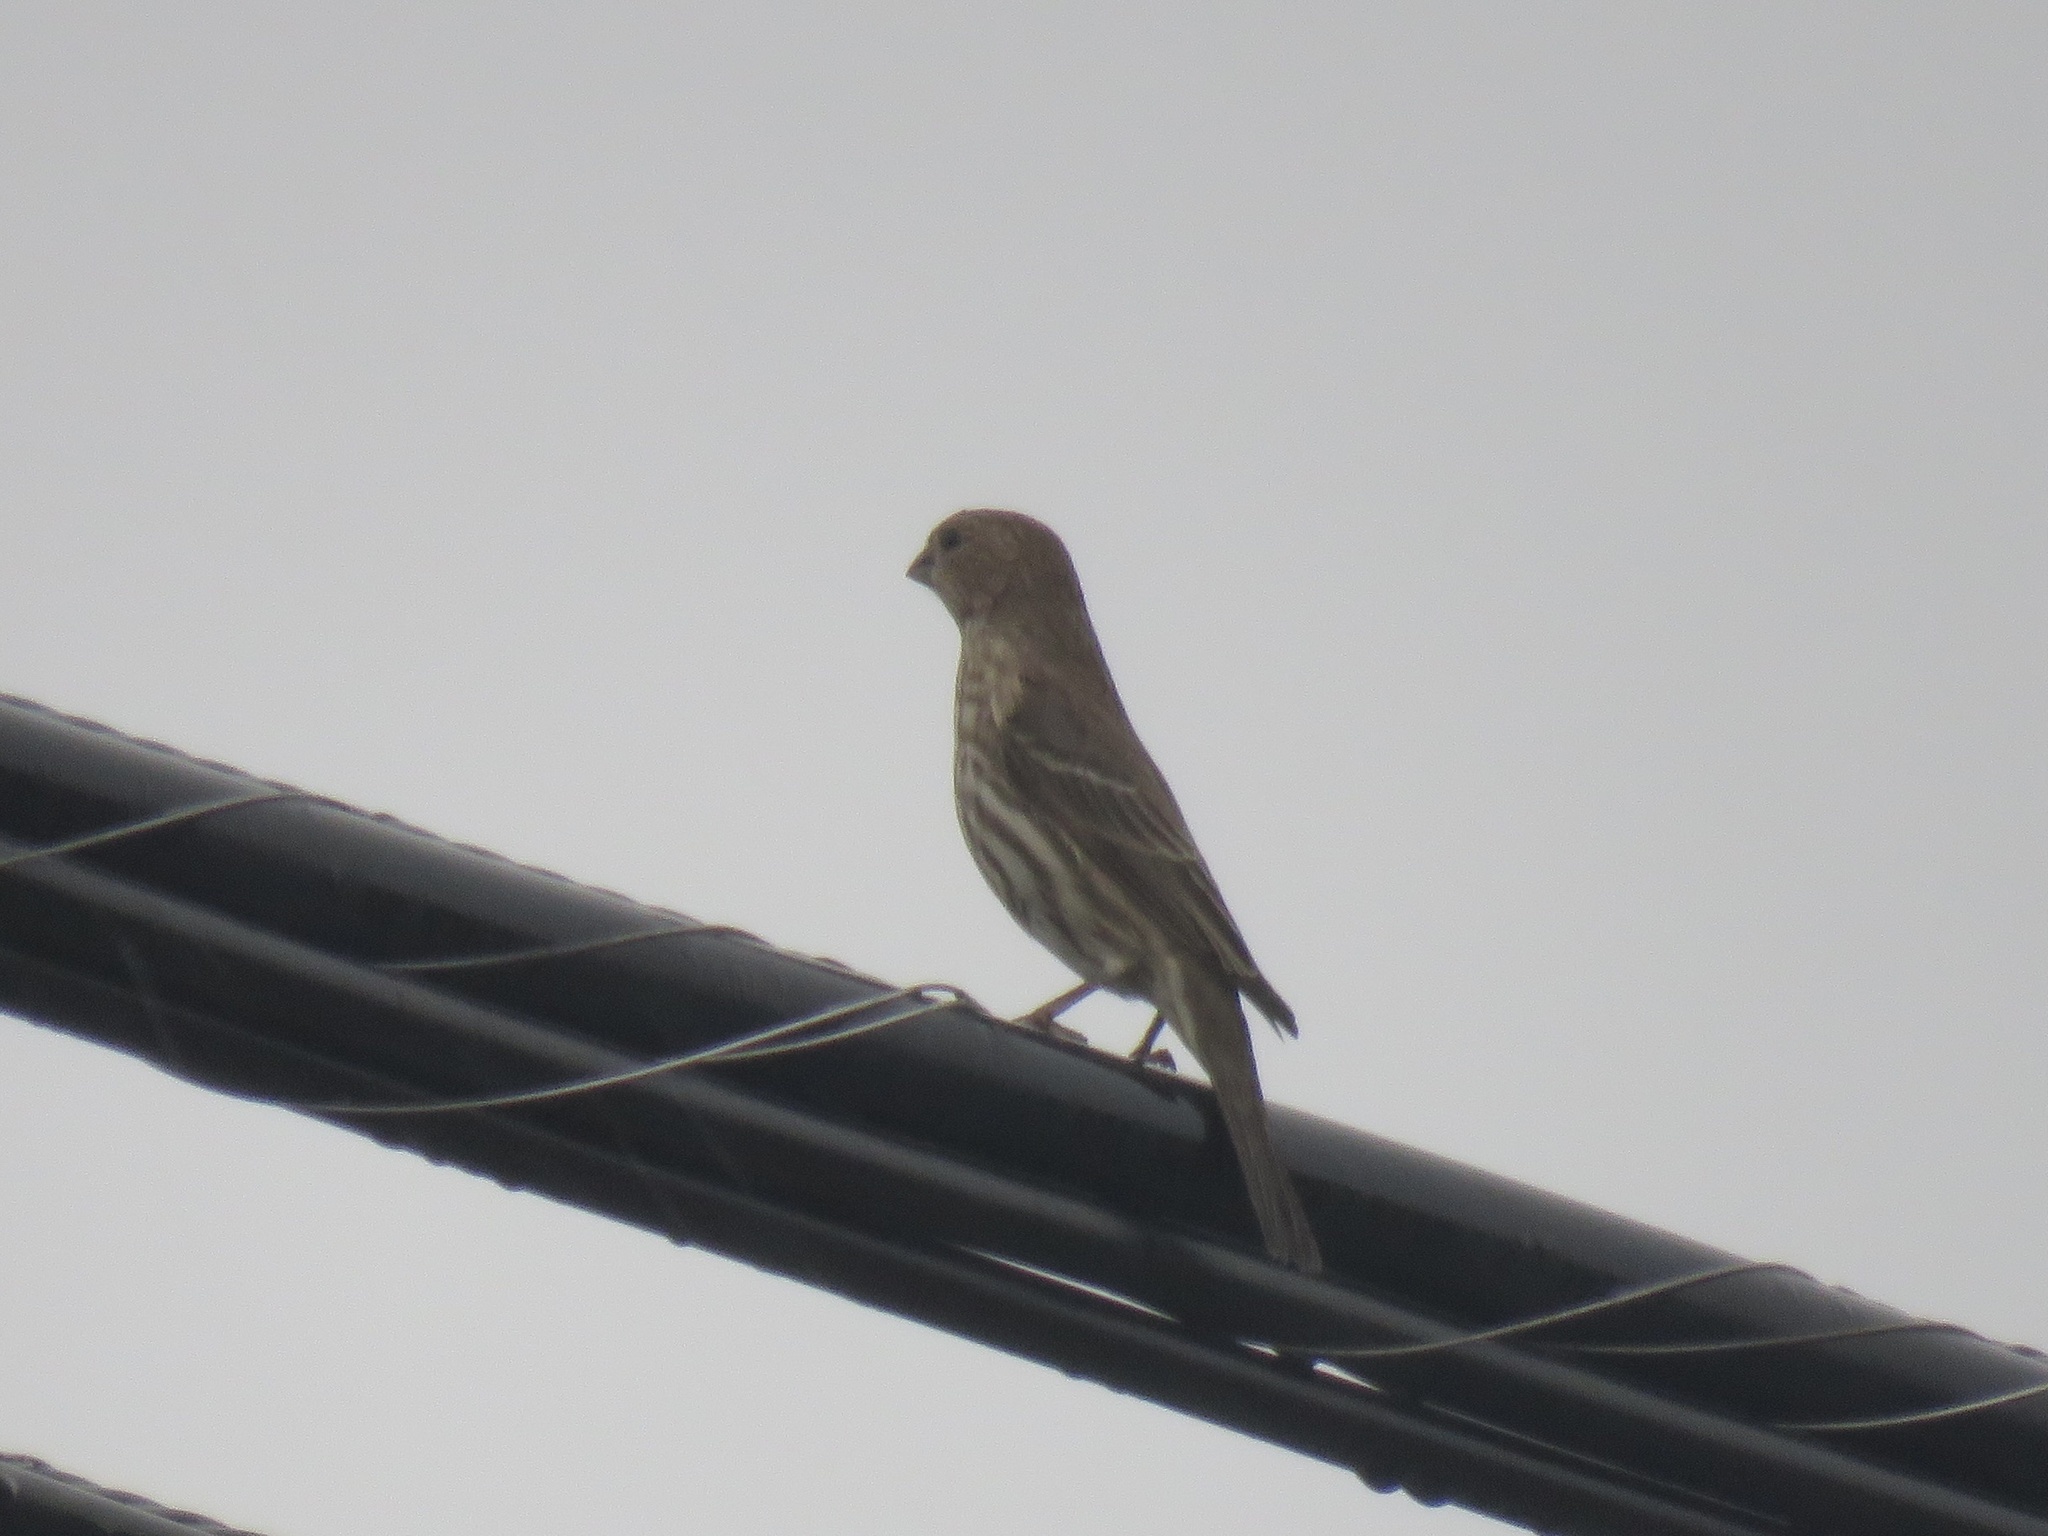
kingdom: Animalia
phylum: Chordata
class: Aves
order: Passeriformes
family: Fringillidae
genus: Haemorhous
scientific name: Haemorhous mexicanus
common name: House finch
